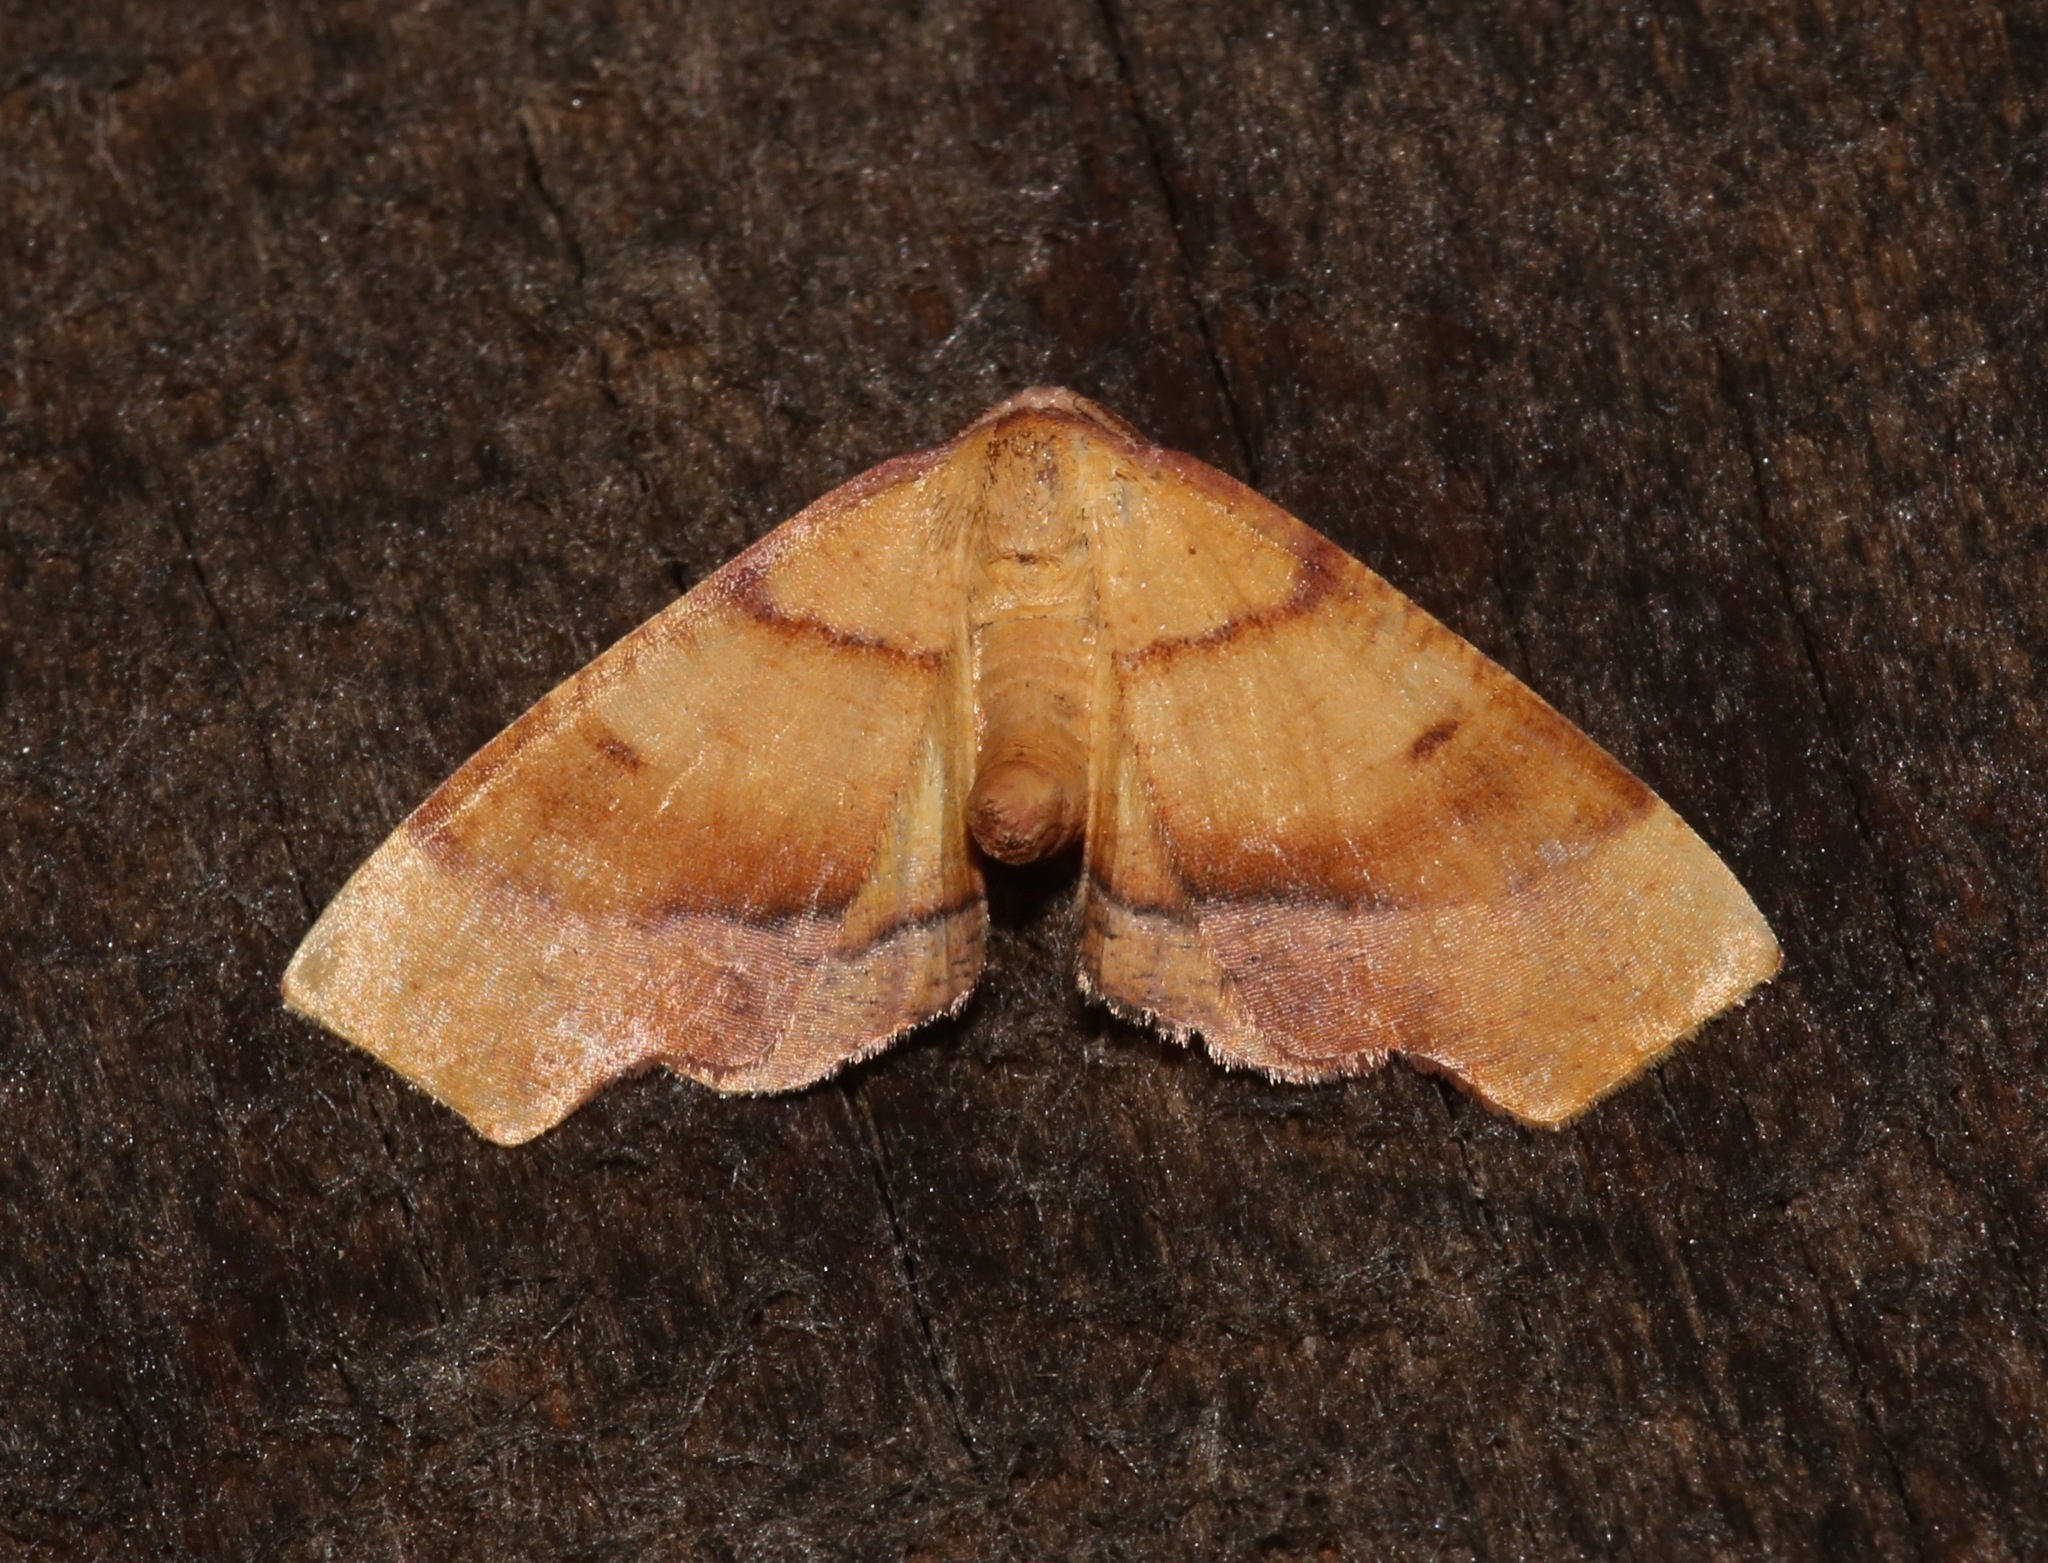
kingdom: Animalia
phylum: Arthropoda
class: Insecta
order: Lepidoptera
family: Geometridae
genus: Plagodis
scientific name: Plagodis phlogosaria
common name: Straight-lined plagodis
